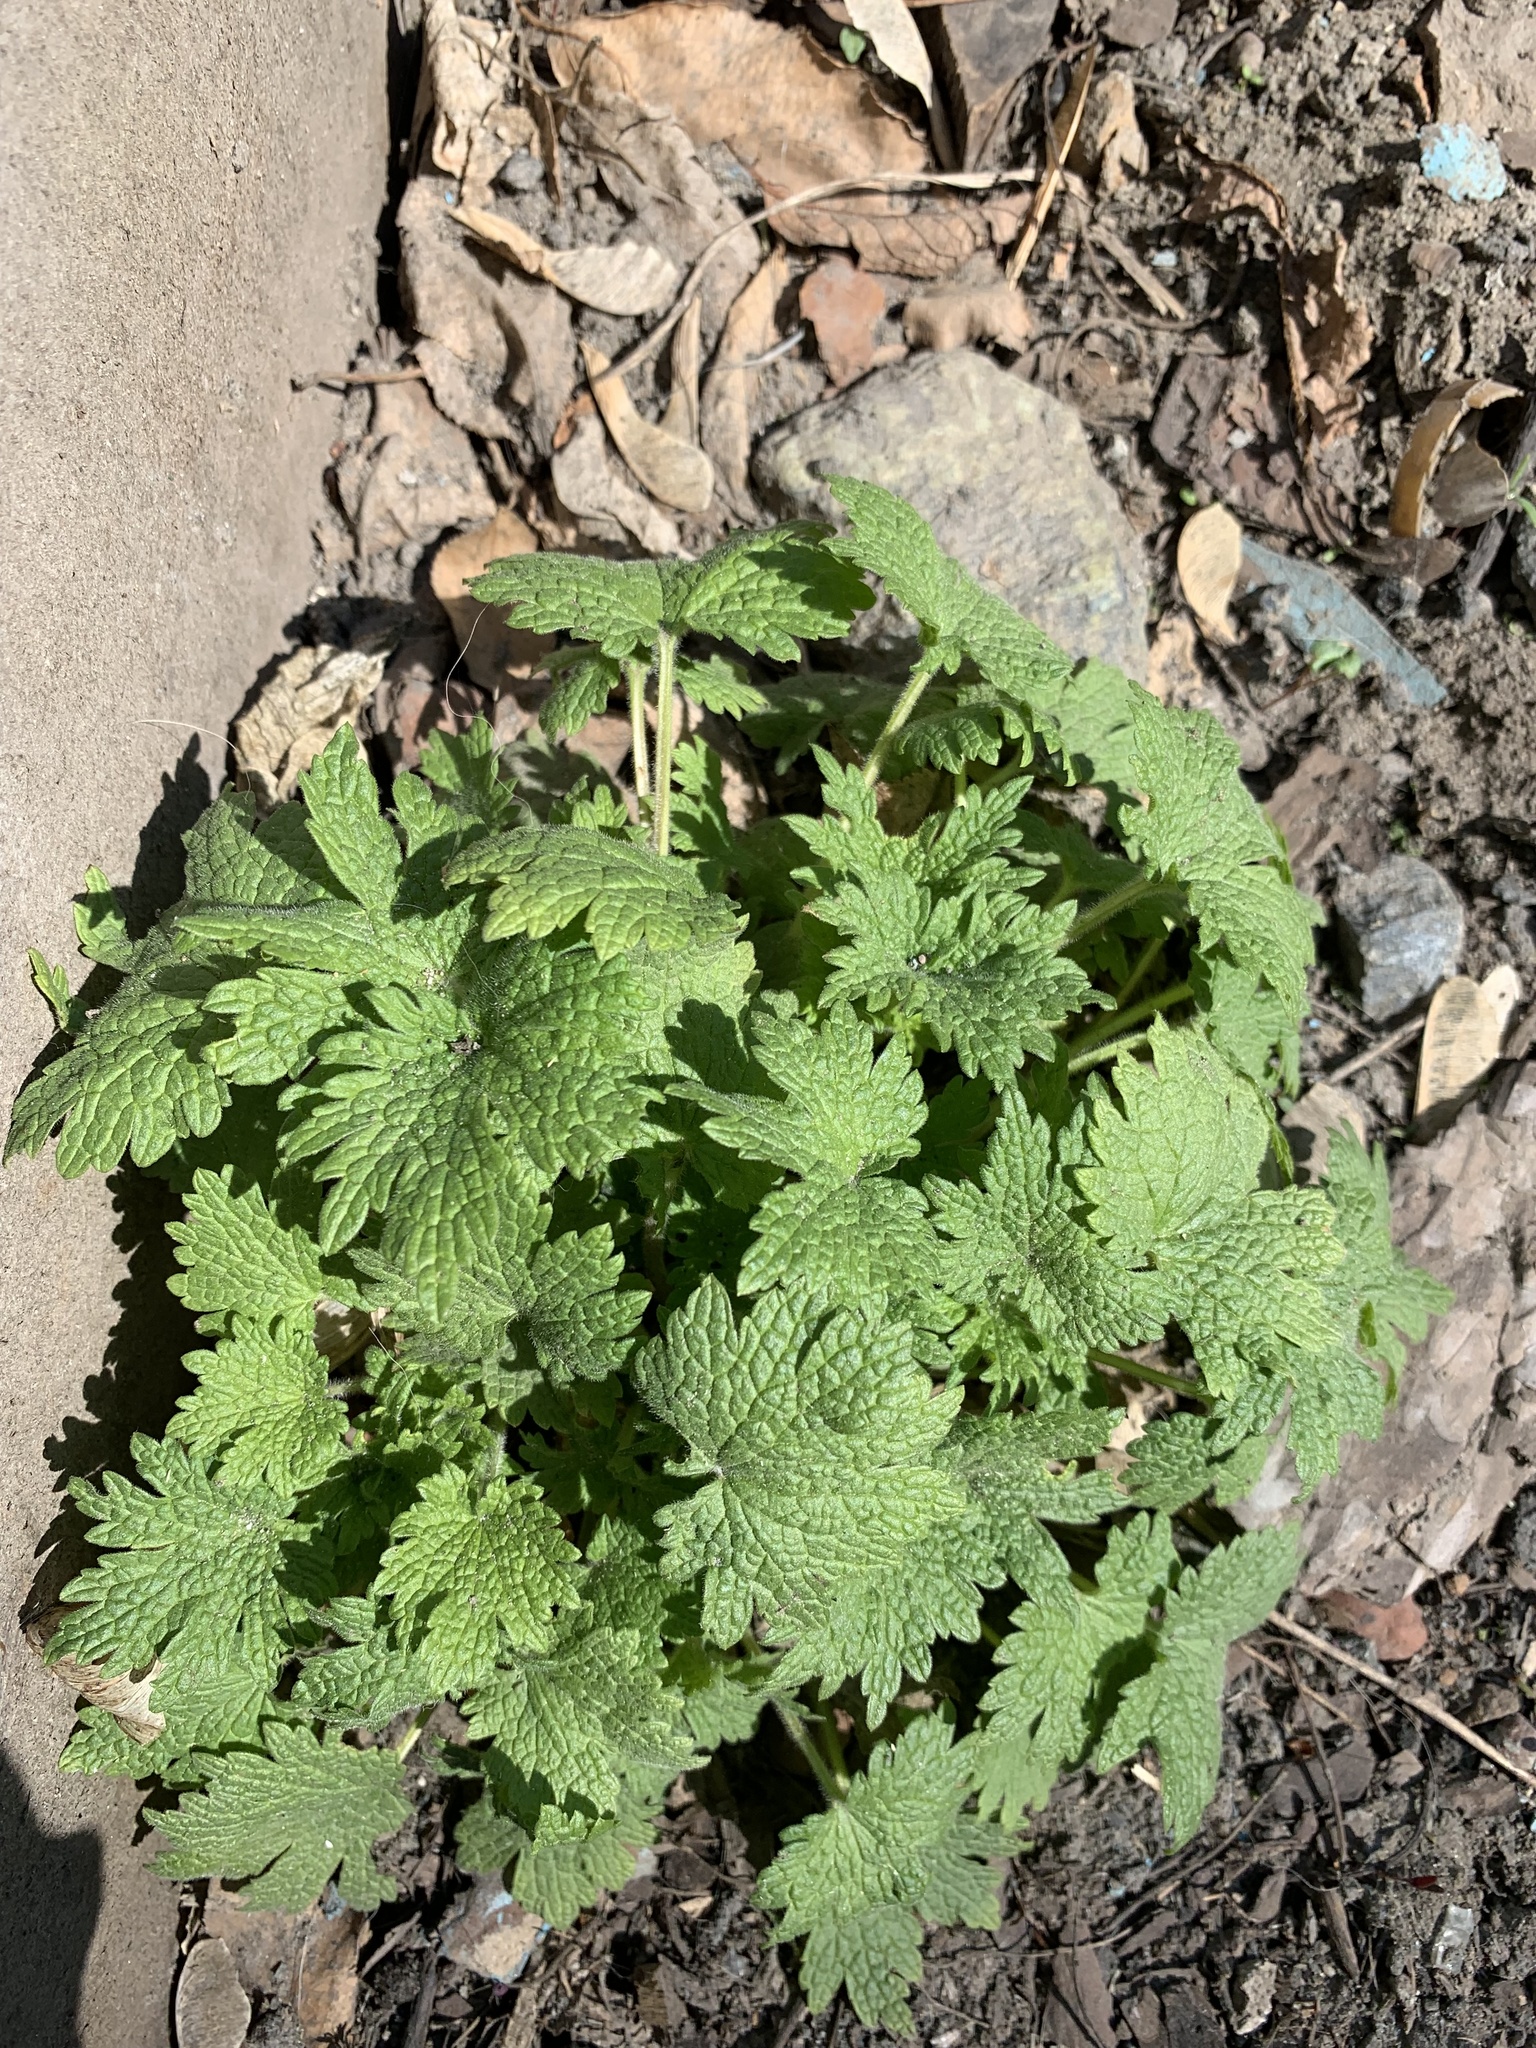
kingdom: Plantae
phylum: Tracheophyta
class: Magnoliopsida
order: Lamiales
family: Lamiaceae
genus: Leonurus
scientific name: Leonurus quinquelobatus
